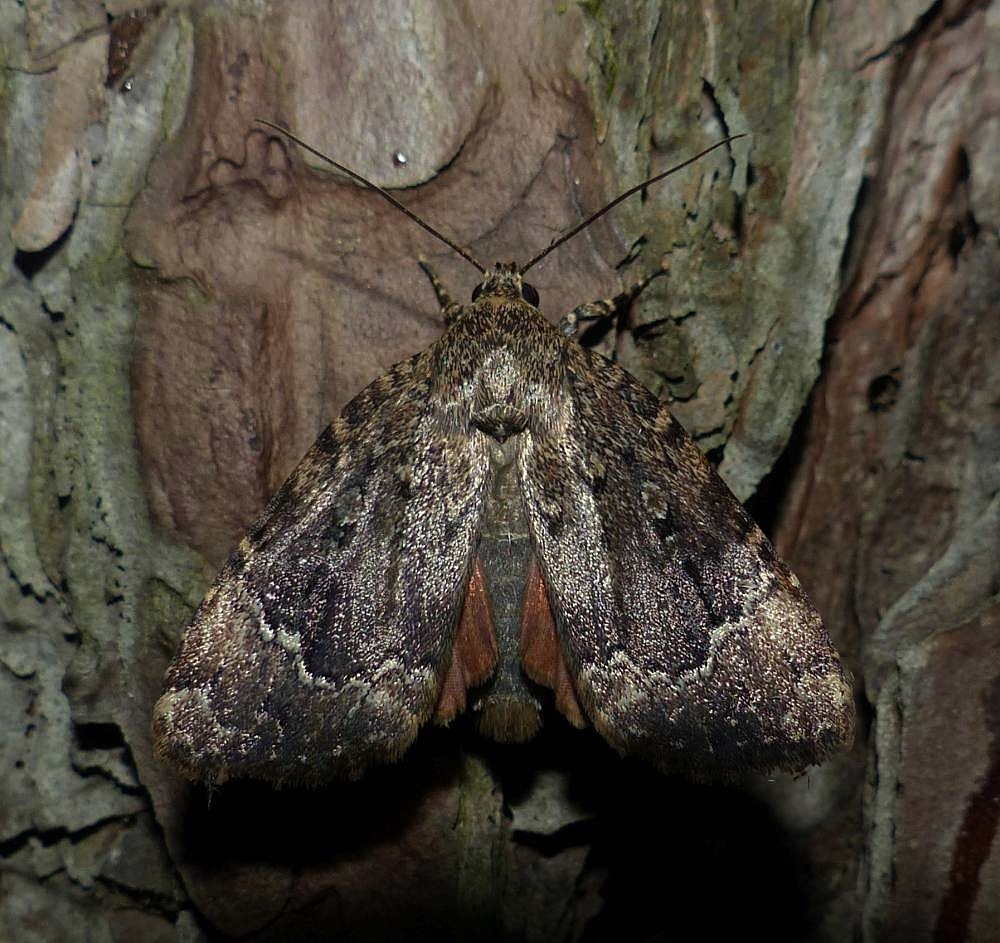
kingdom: Animalia
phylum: Arthropoda
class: Insecta
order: Lepidoptera
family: Noctuidae
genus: Amphipyra
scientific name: Amphipyra pyramidoides
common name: American copper underwing
